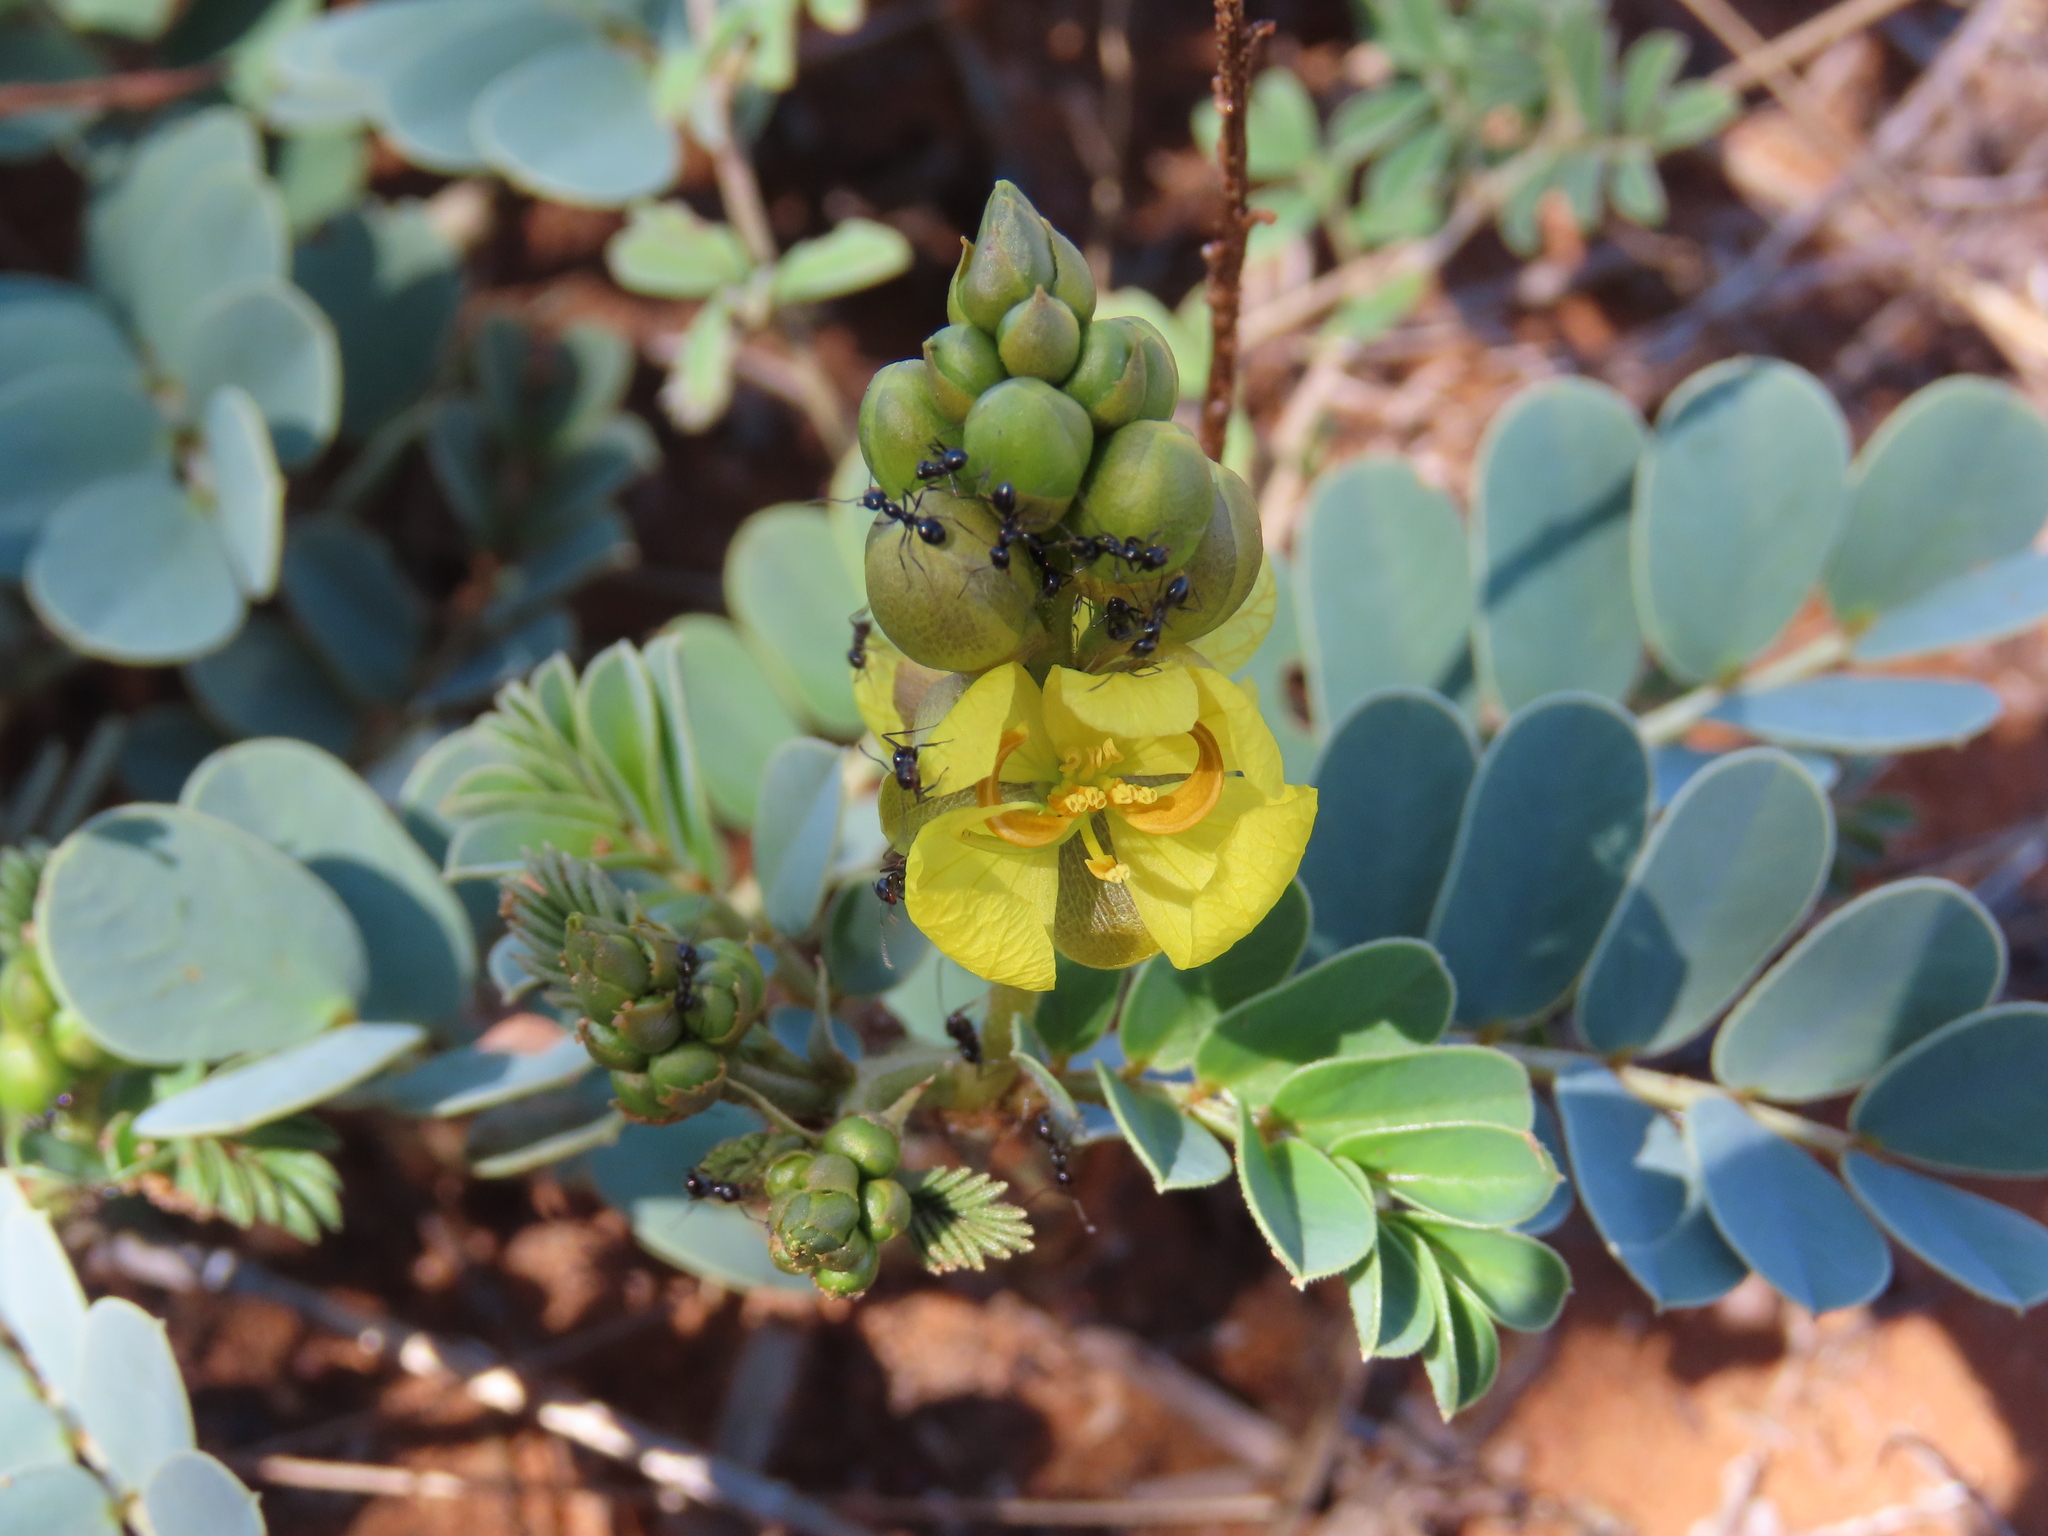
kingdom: Plantae
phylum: Tracheophyta
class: Magnoliopsida
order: Fabales
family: Fabaceae
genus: Senna
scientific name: Senna italica
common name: Port royal senna
